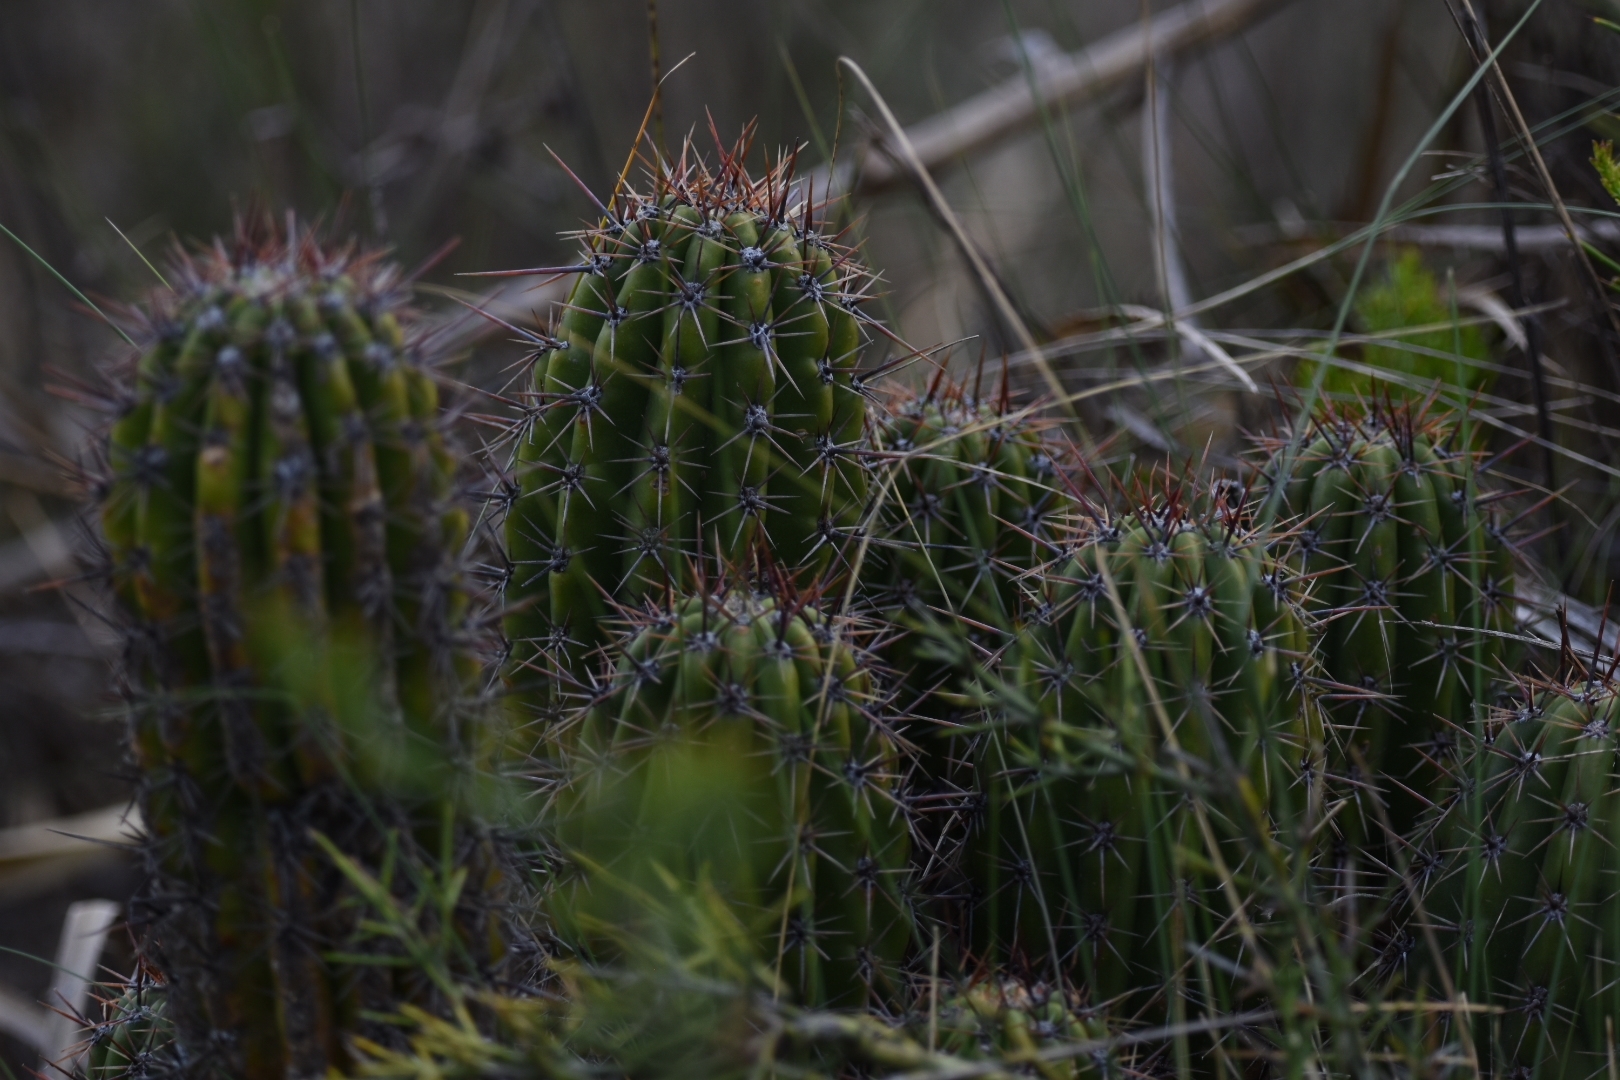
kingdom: Plantae
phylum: Tracheophyta
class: Magnoliopsida
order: Caryophyllales
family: Cactaceae
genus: Soehrensia
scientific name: Soehrensia candicans
